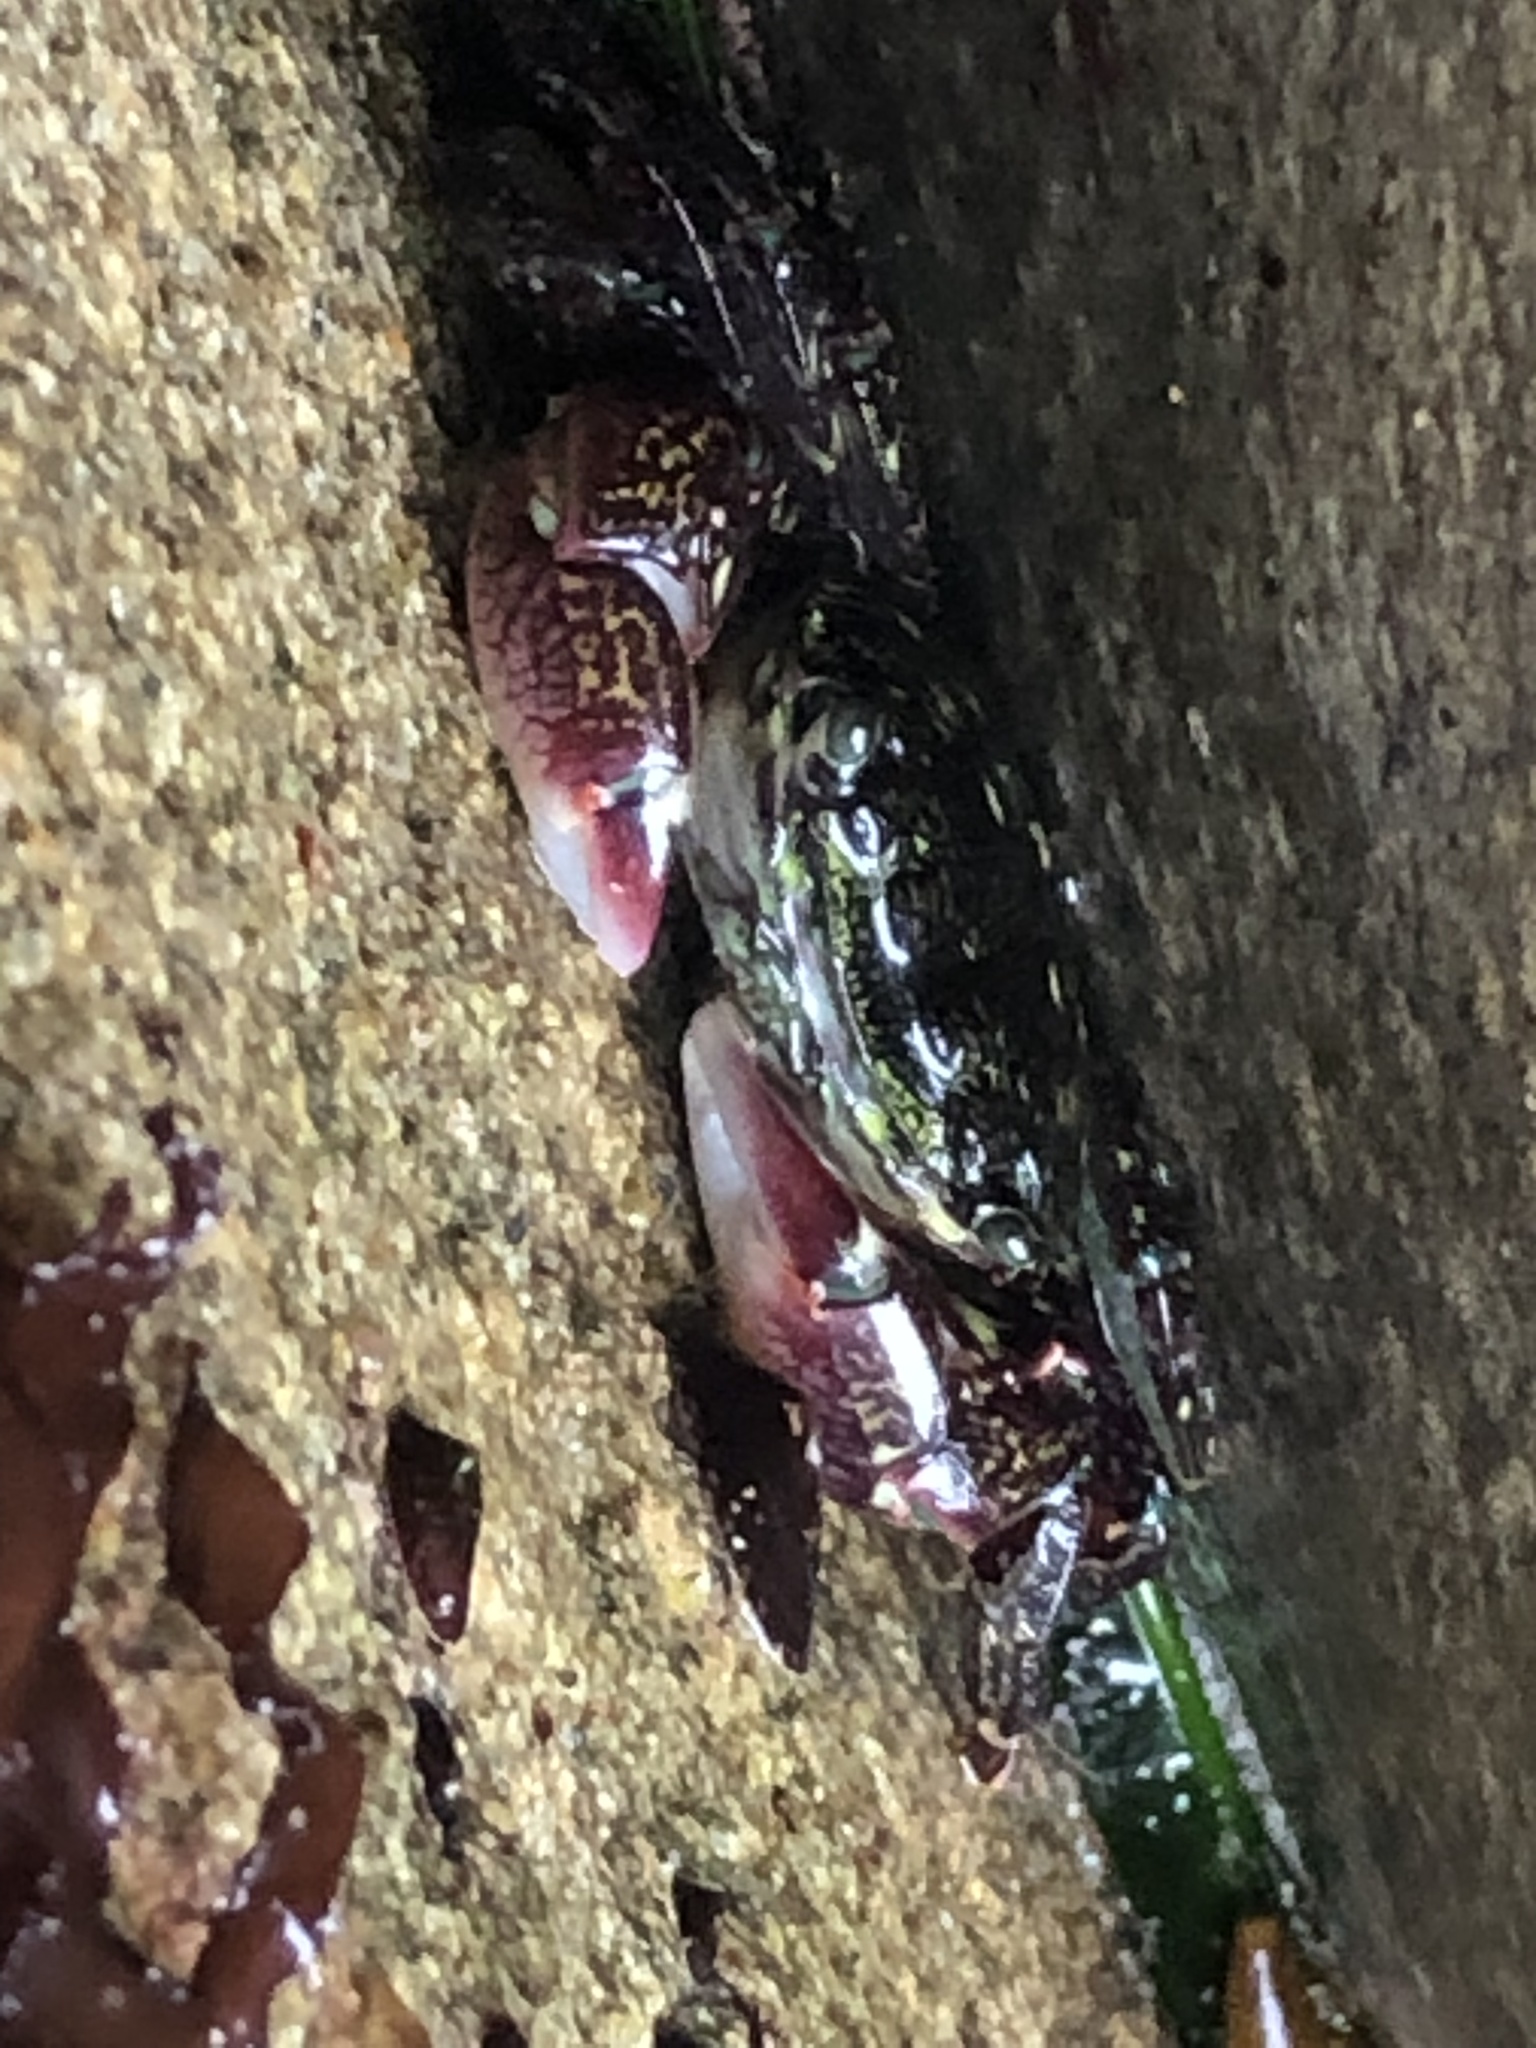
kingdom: Animalia
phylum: Arthropoda
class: Malacostraca
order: Decapoda
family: Grapsidae
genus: Pachygrapsus
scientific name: Pachygrapsus crassipes
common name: Striped shore crab
